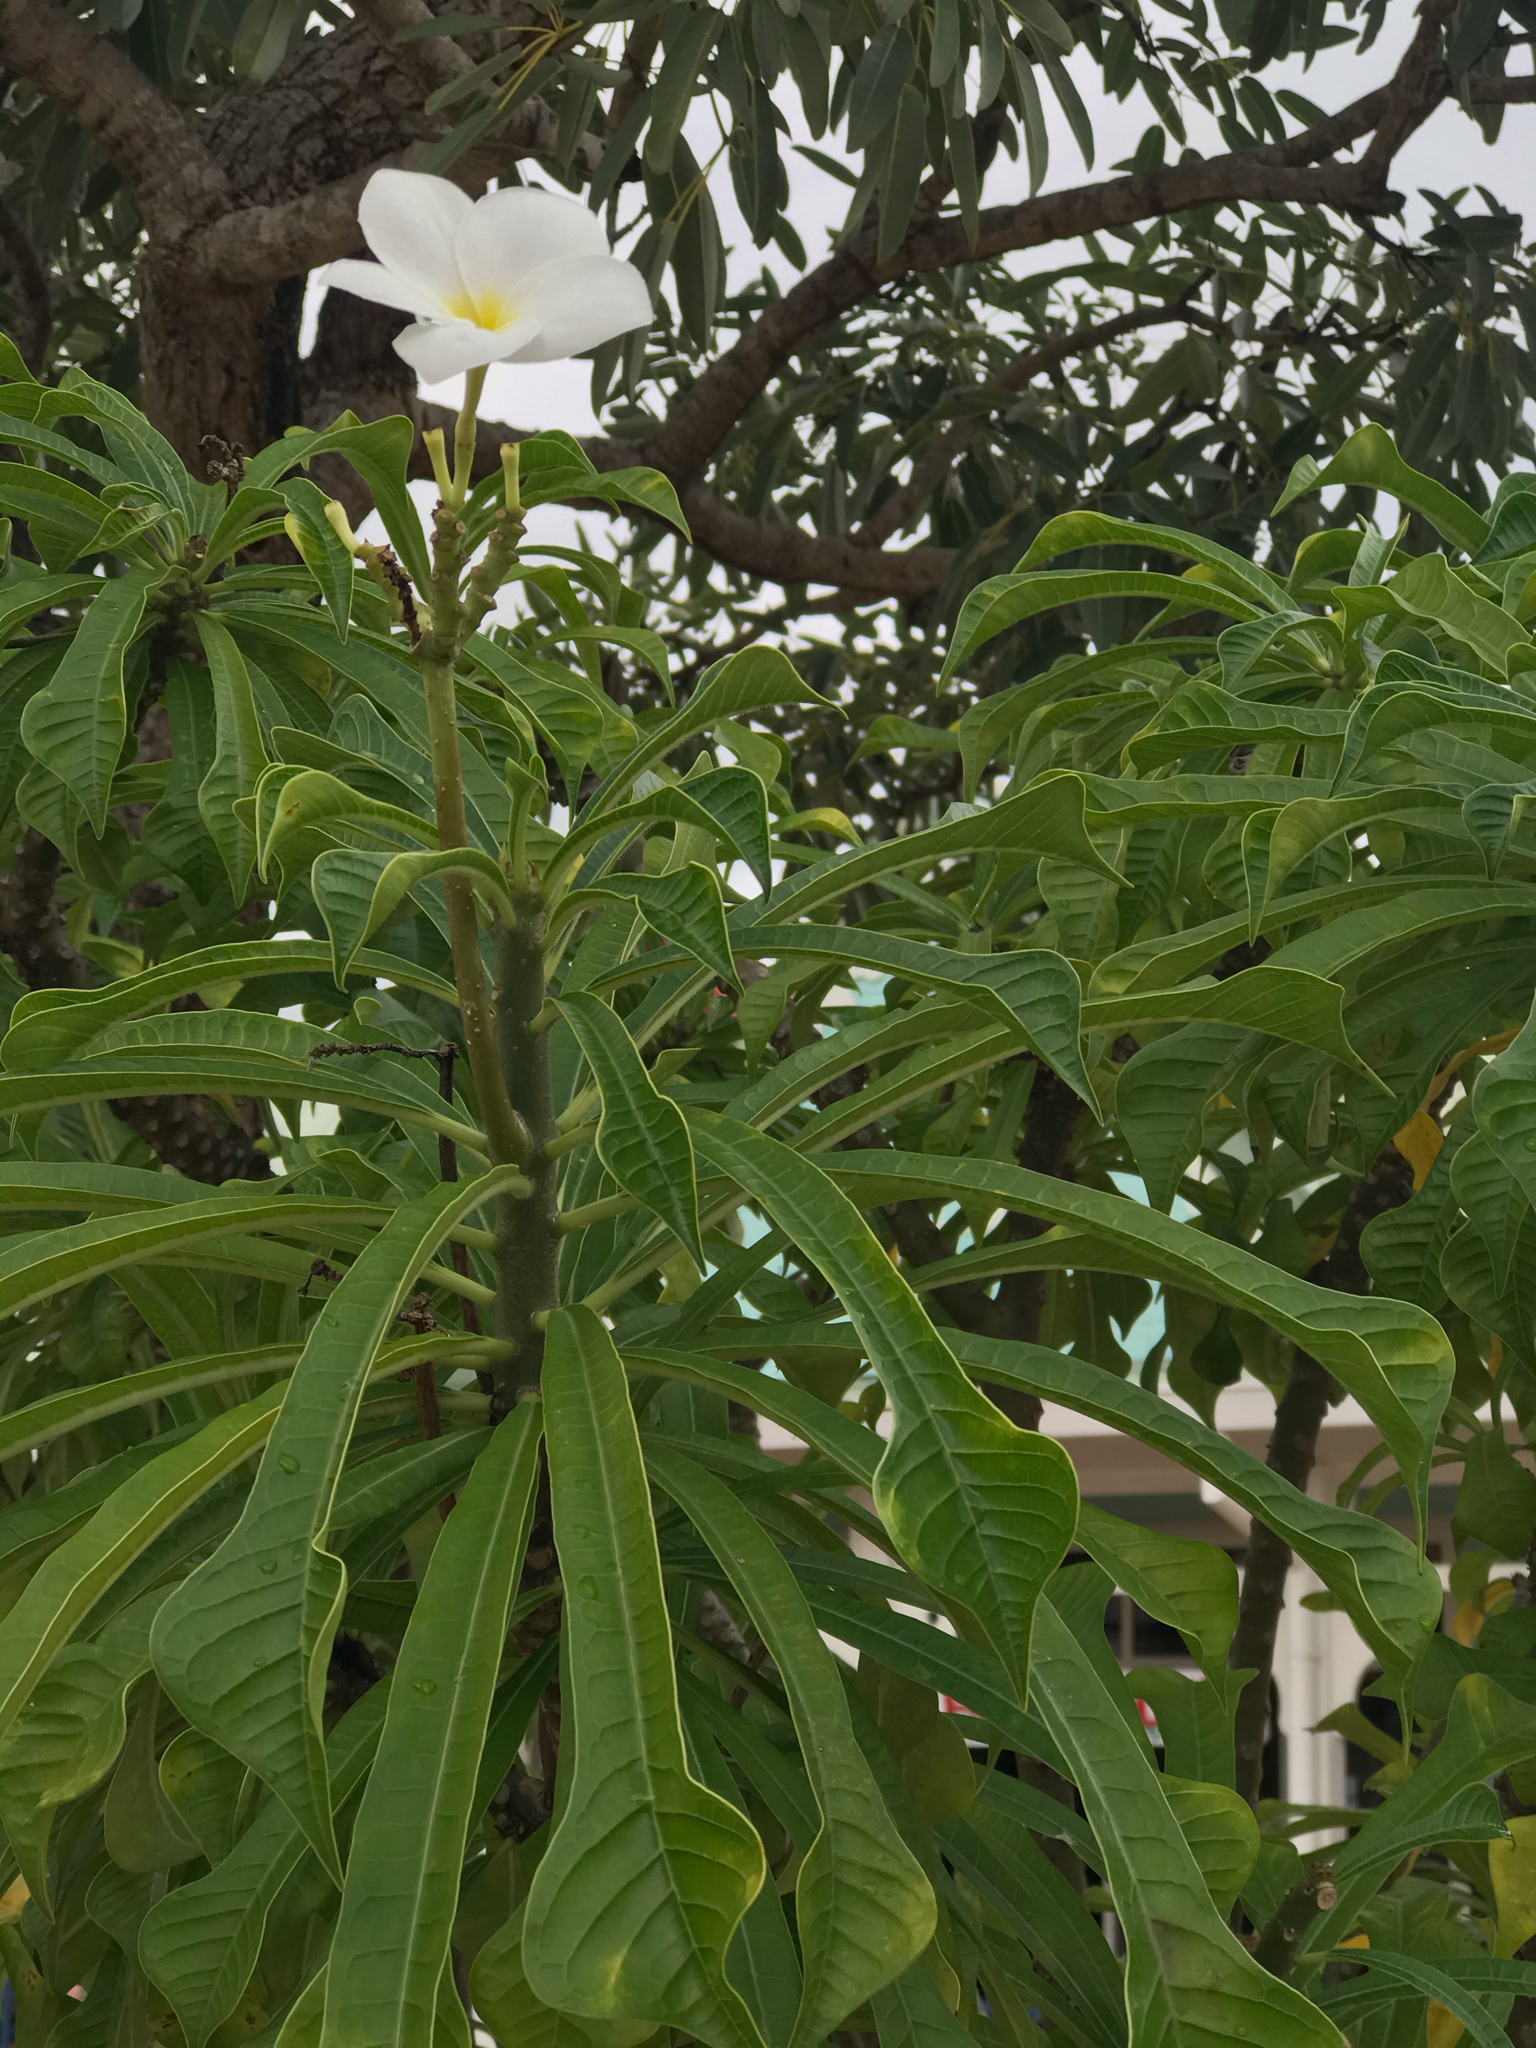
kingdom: Plantae
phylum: Tracheophyta
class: Magnoliopsida
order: Gentianales
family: Apocynaceae
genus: Plumeria
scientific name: Plumeria pudica
